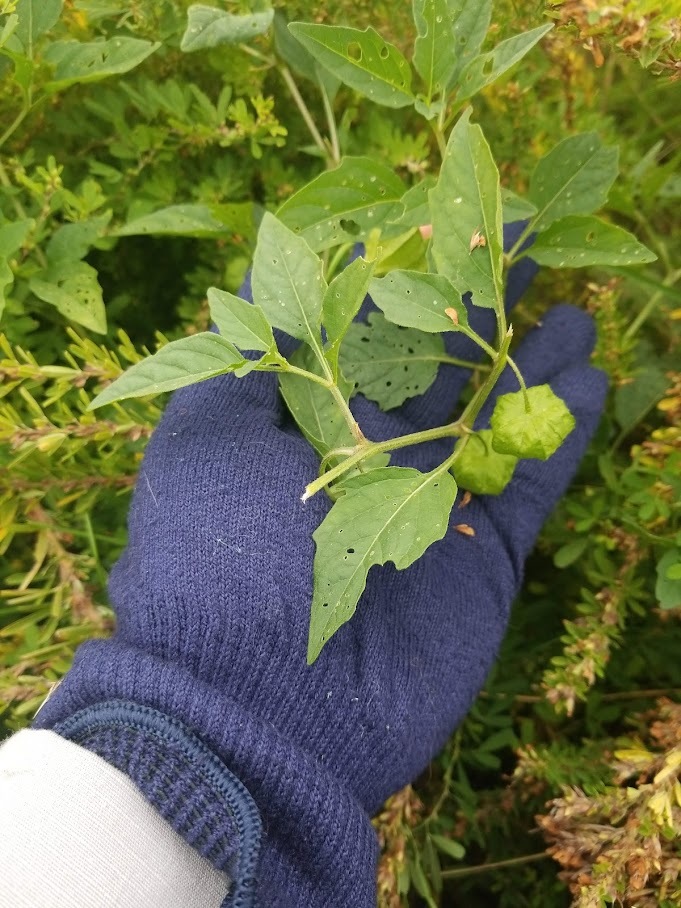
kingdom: Plantae
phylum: Tracheophyta
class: Magnoliopsida
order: Solanales
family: Solanaceae
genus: Physalis
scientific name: Physalis longifolia
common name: Common ground-cherry
